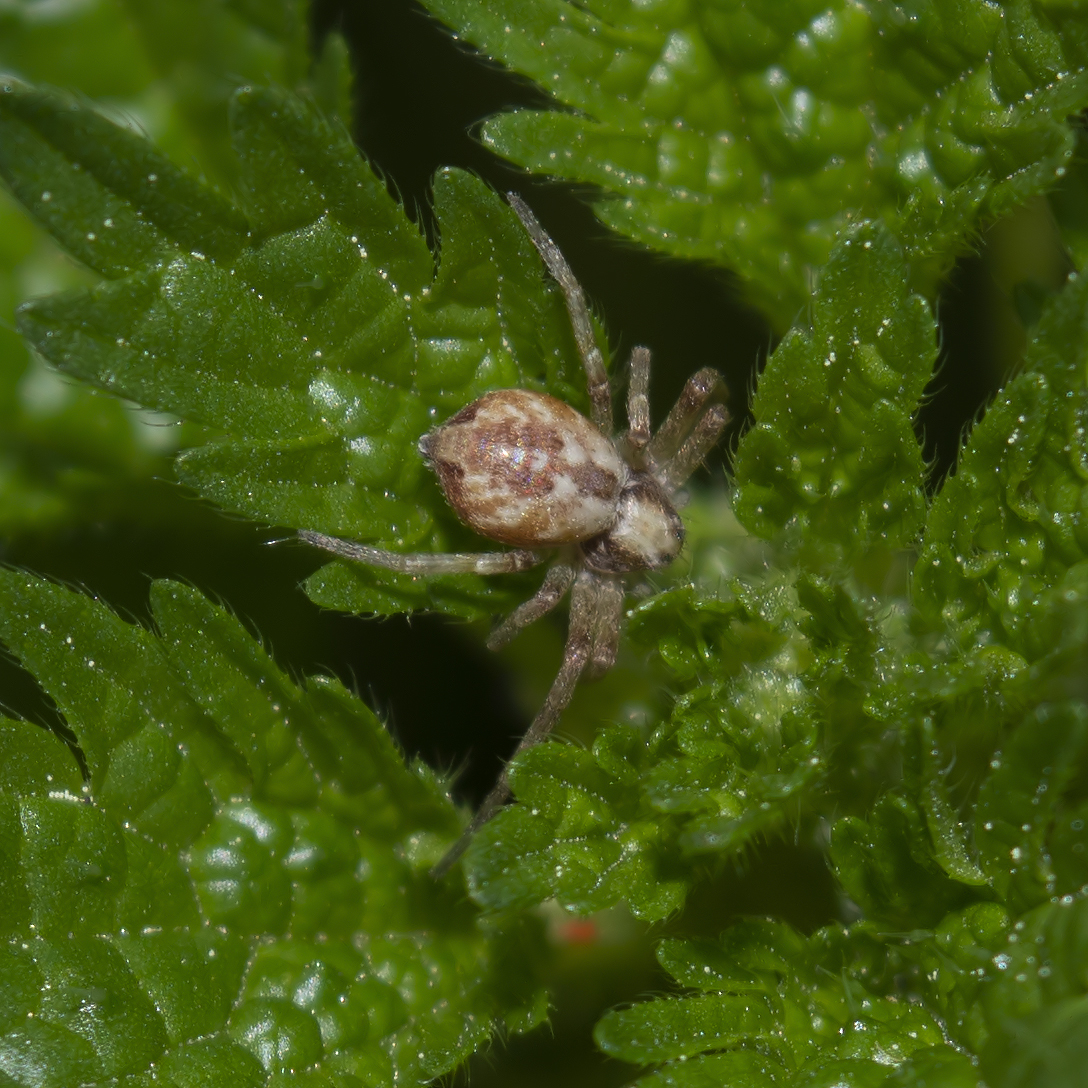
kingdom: Animalia
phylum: Arthropoda
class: Arachnida
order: Araneae
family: Philodromidae
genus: Philodromus
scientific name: Philodromus
